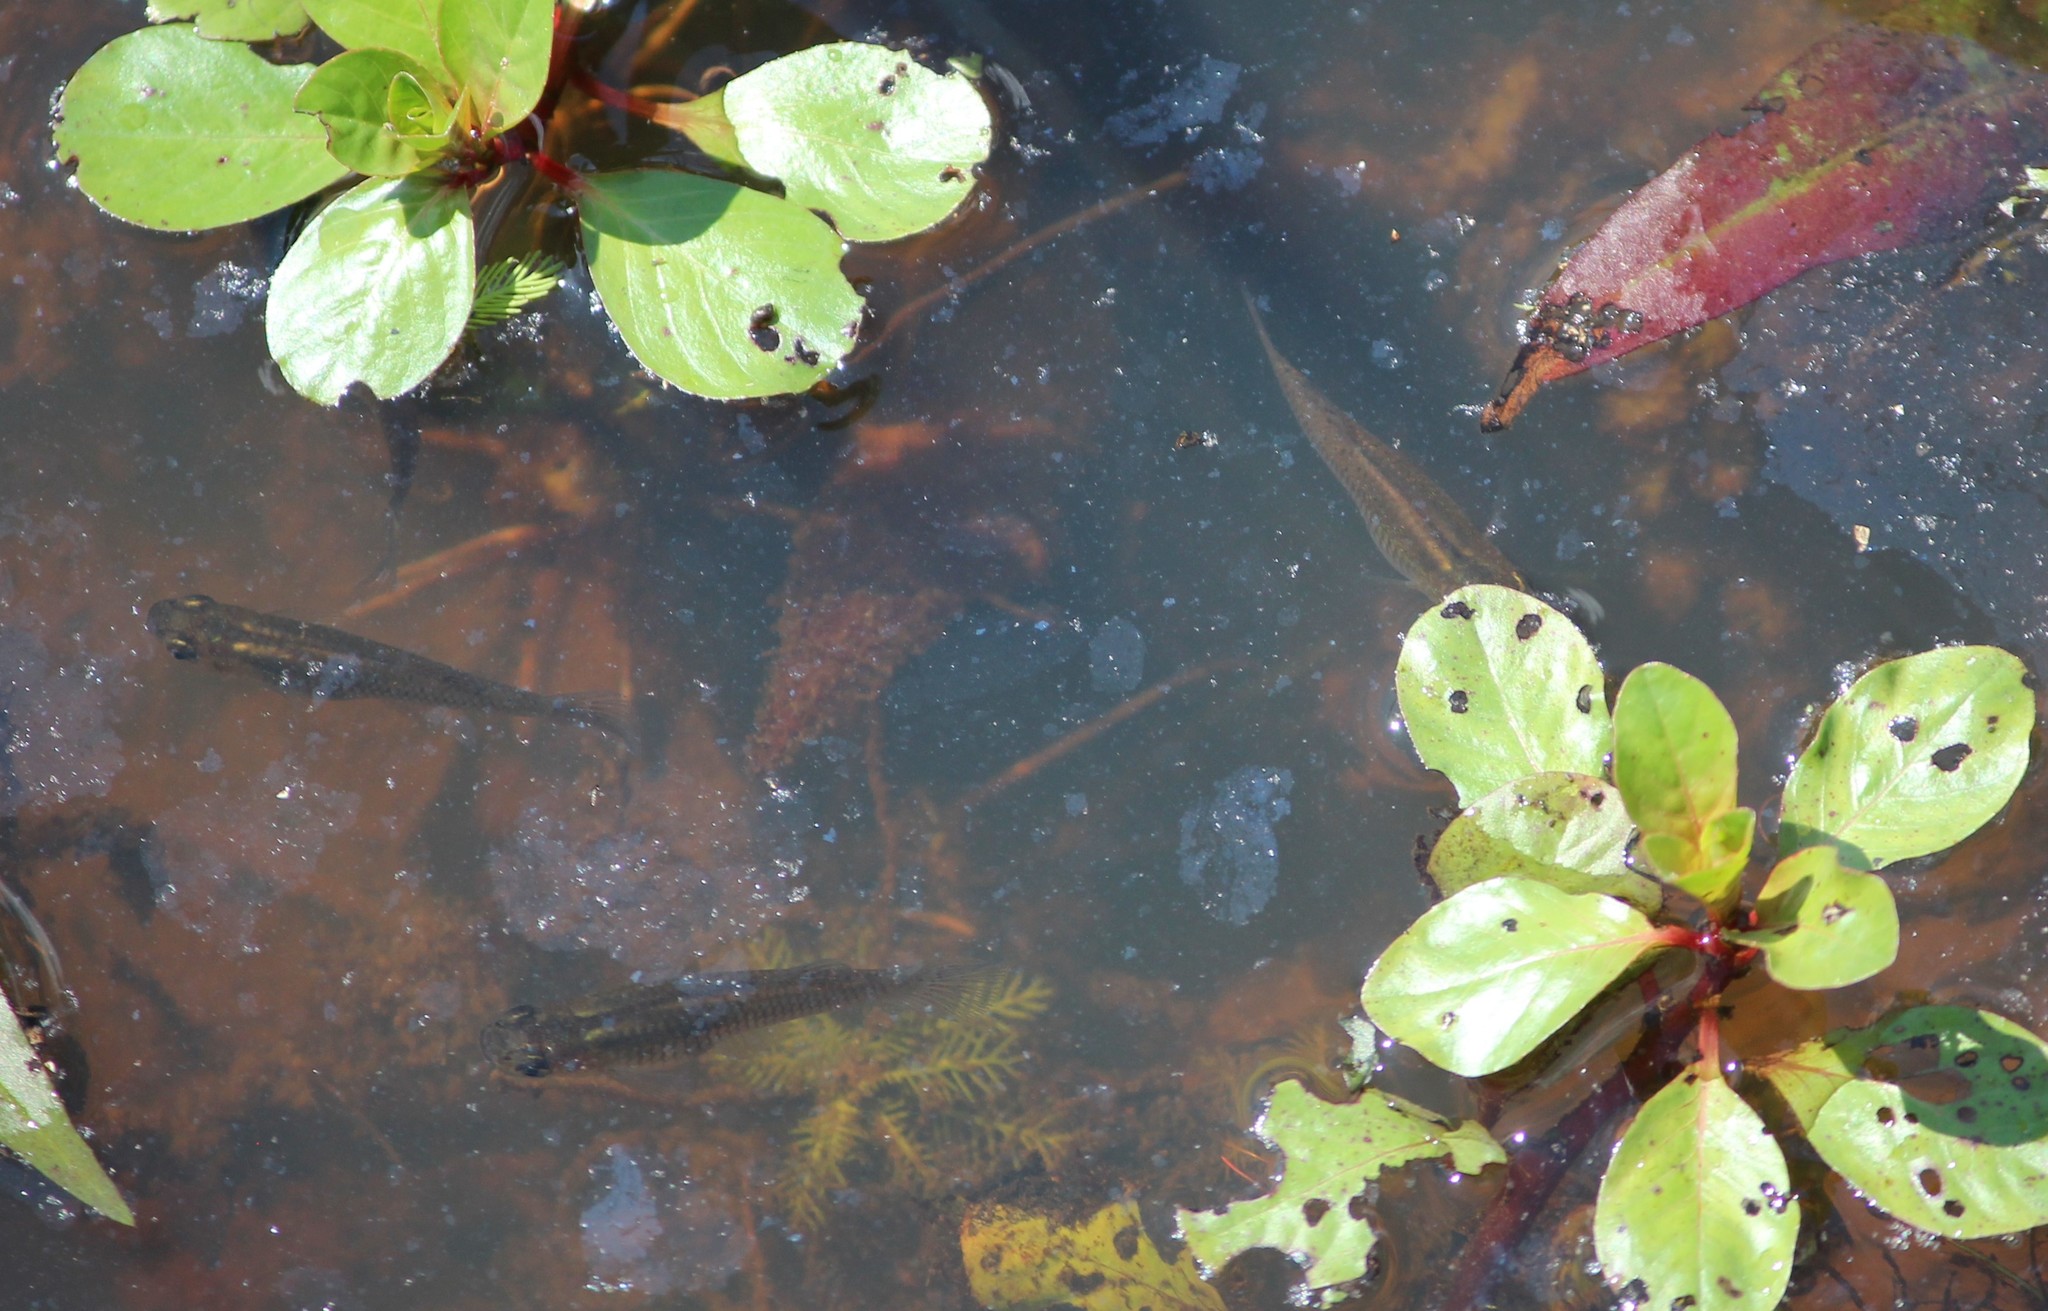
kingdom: Animalia
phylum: Chordata
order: Cyprinodontiformes
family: Poeciliidae
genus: Gambusia
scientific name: Gambusia holbrooki
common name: Eastern mosquitofish
